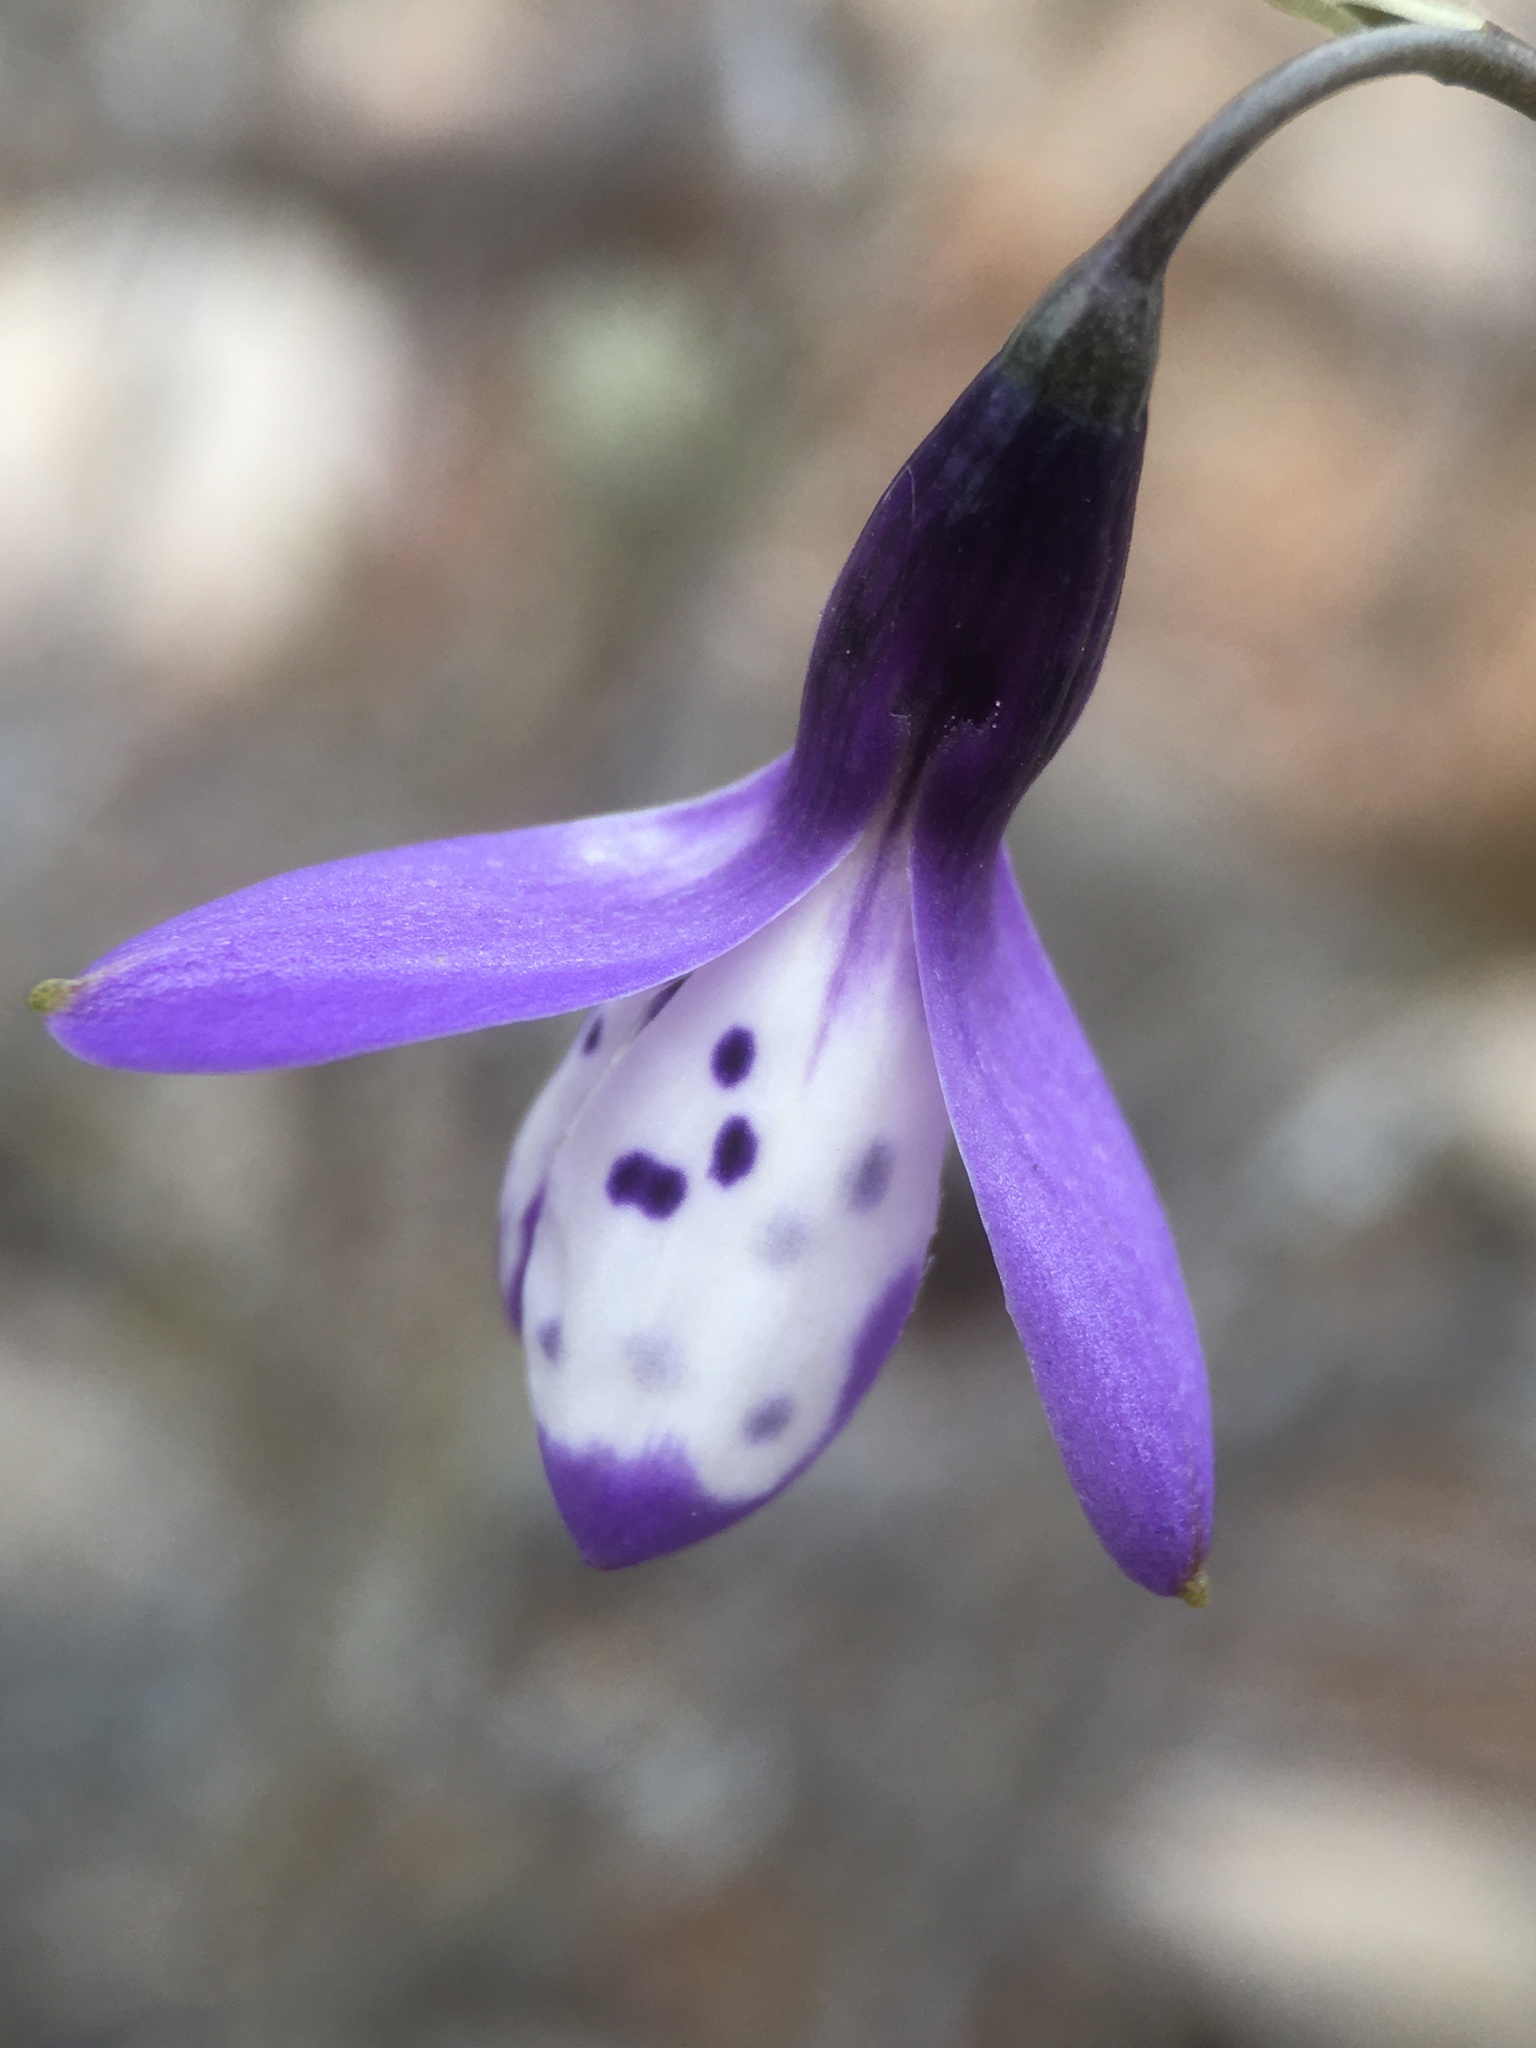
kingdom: Plantae
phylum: Tracheophyta
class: Liliopsida
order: Asparagales
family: Tecophilaeaceae
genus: Conanthera
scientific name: Conanthera campanulata
